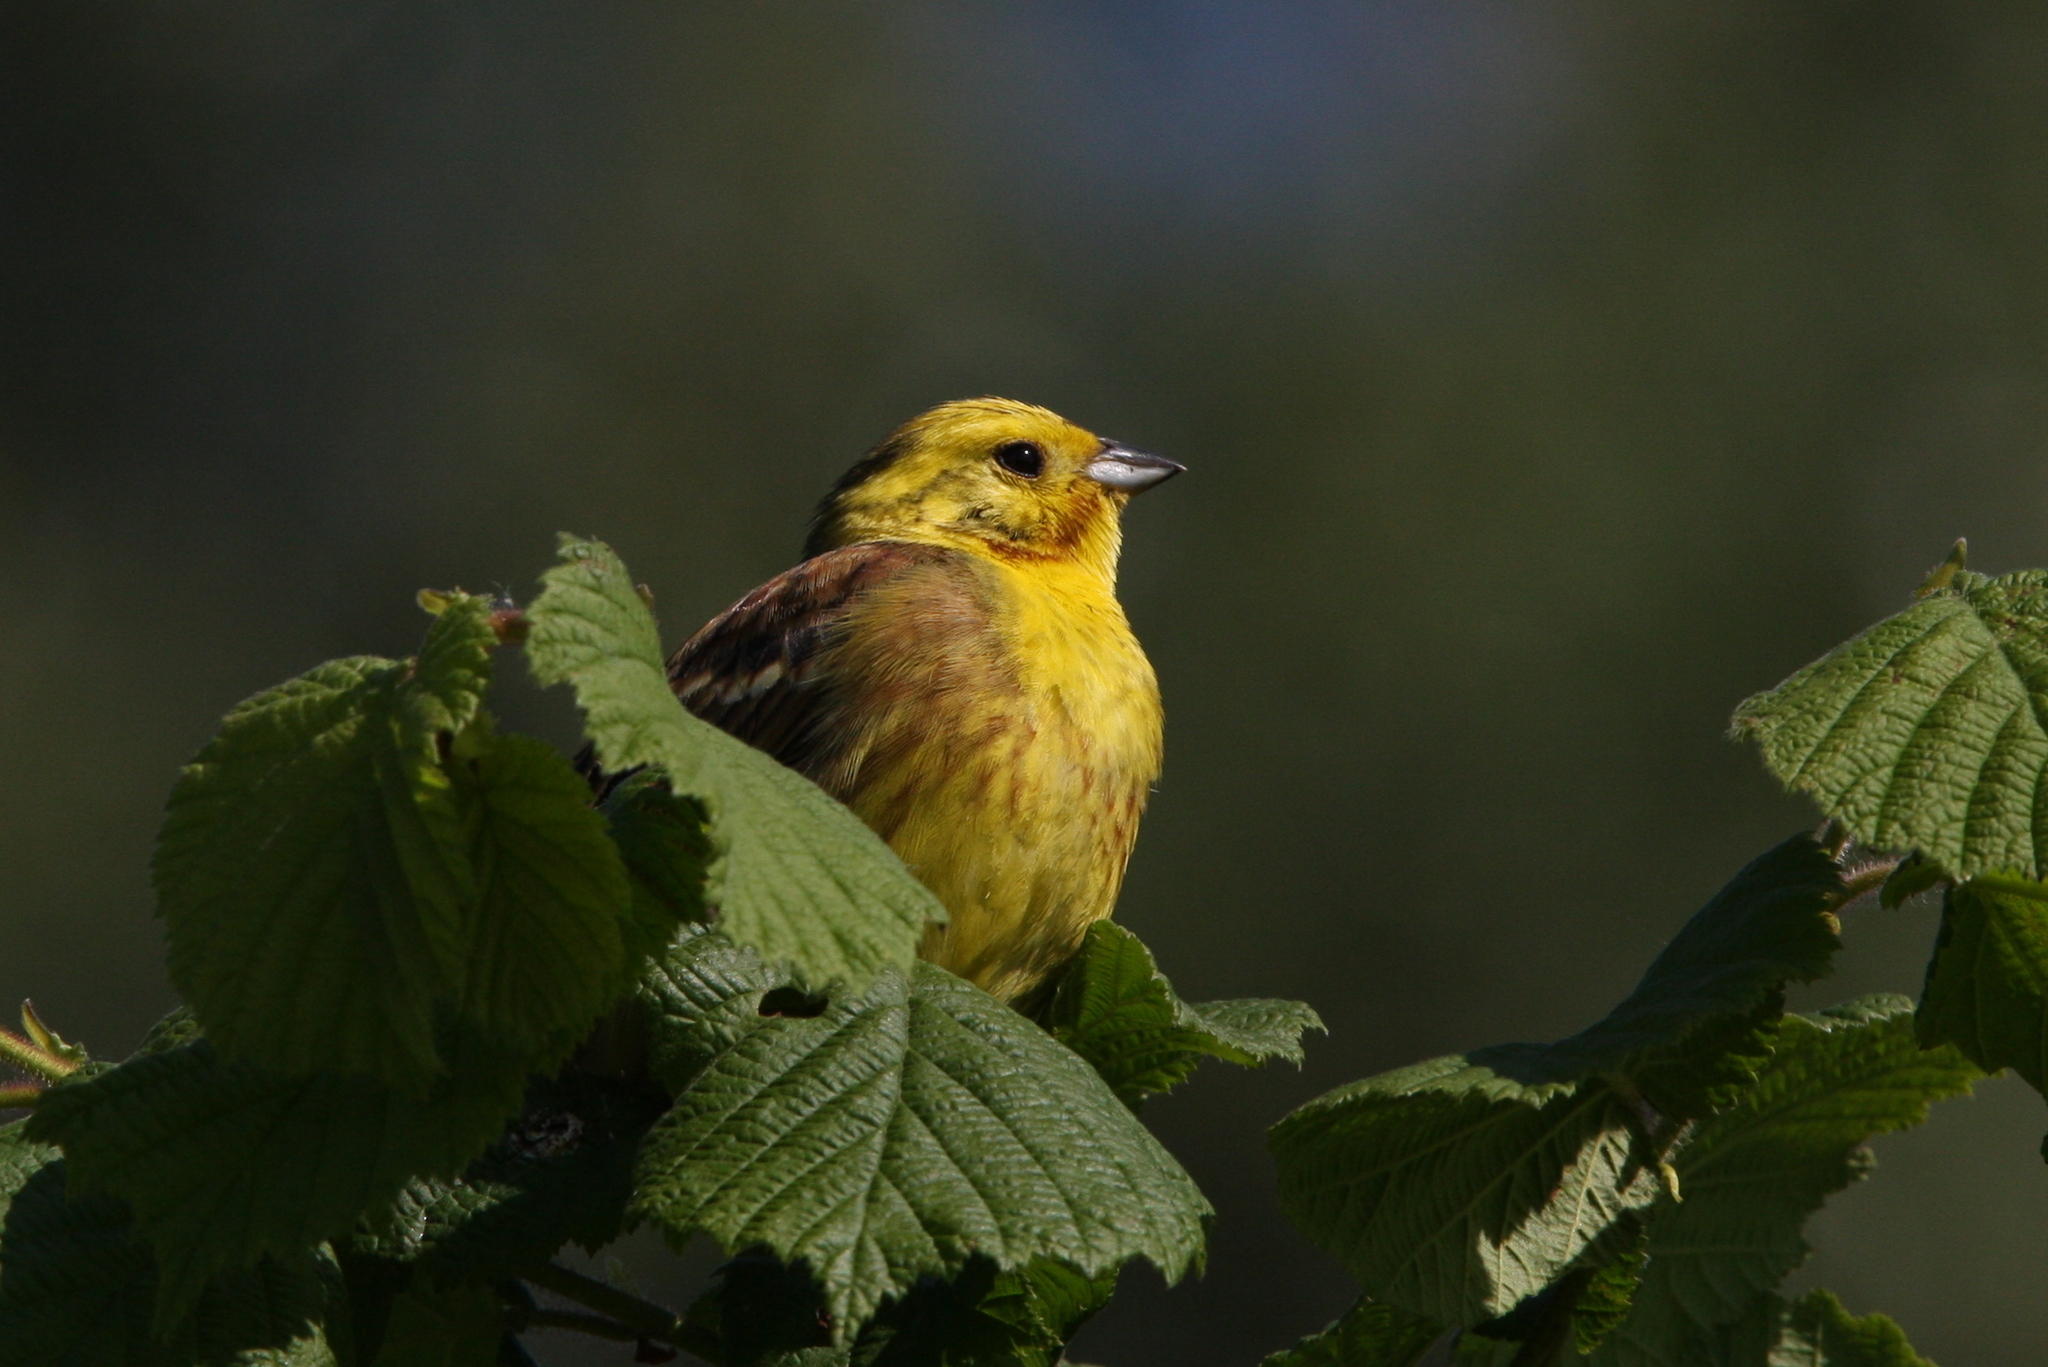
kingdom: Animalia
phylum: Chordata
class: Aves
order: Passeriformes
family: Emberizidae
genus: Emberiza
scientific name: Emberiza citrinella
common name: Yellowhammer
